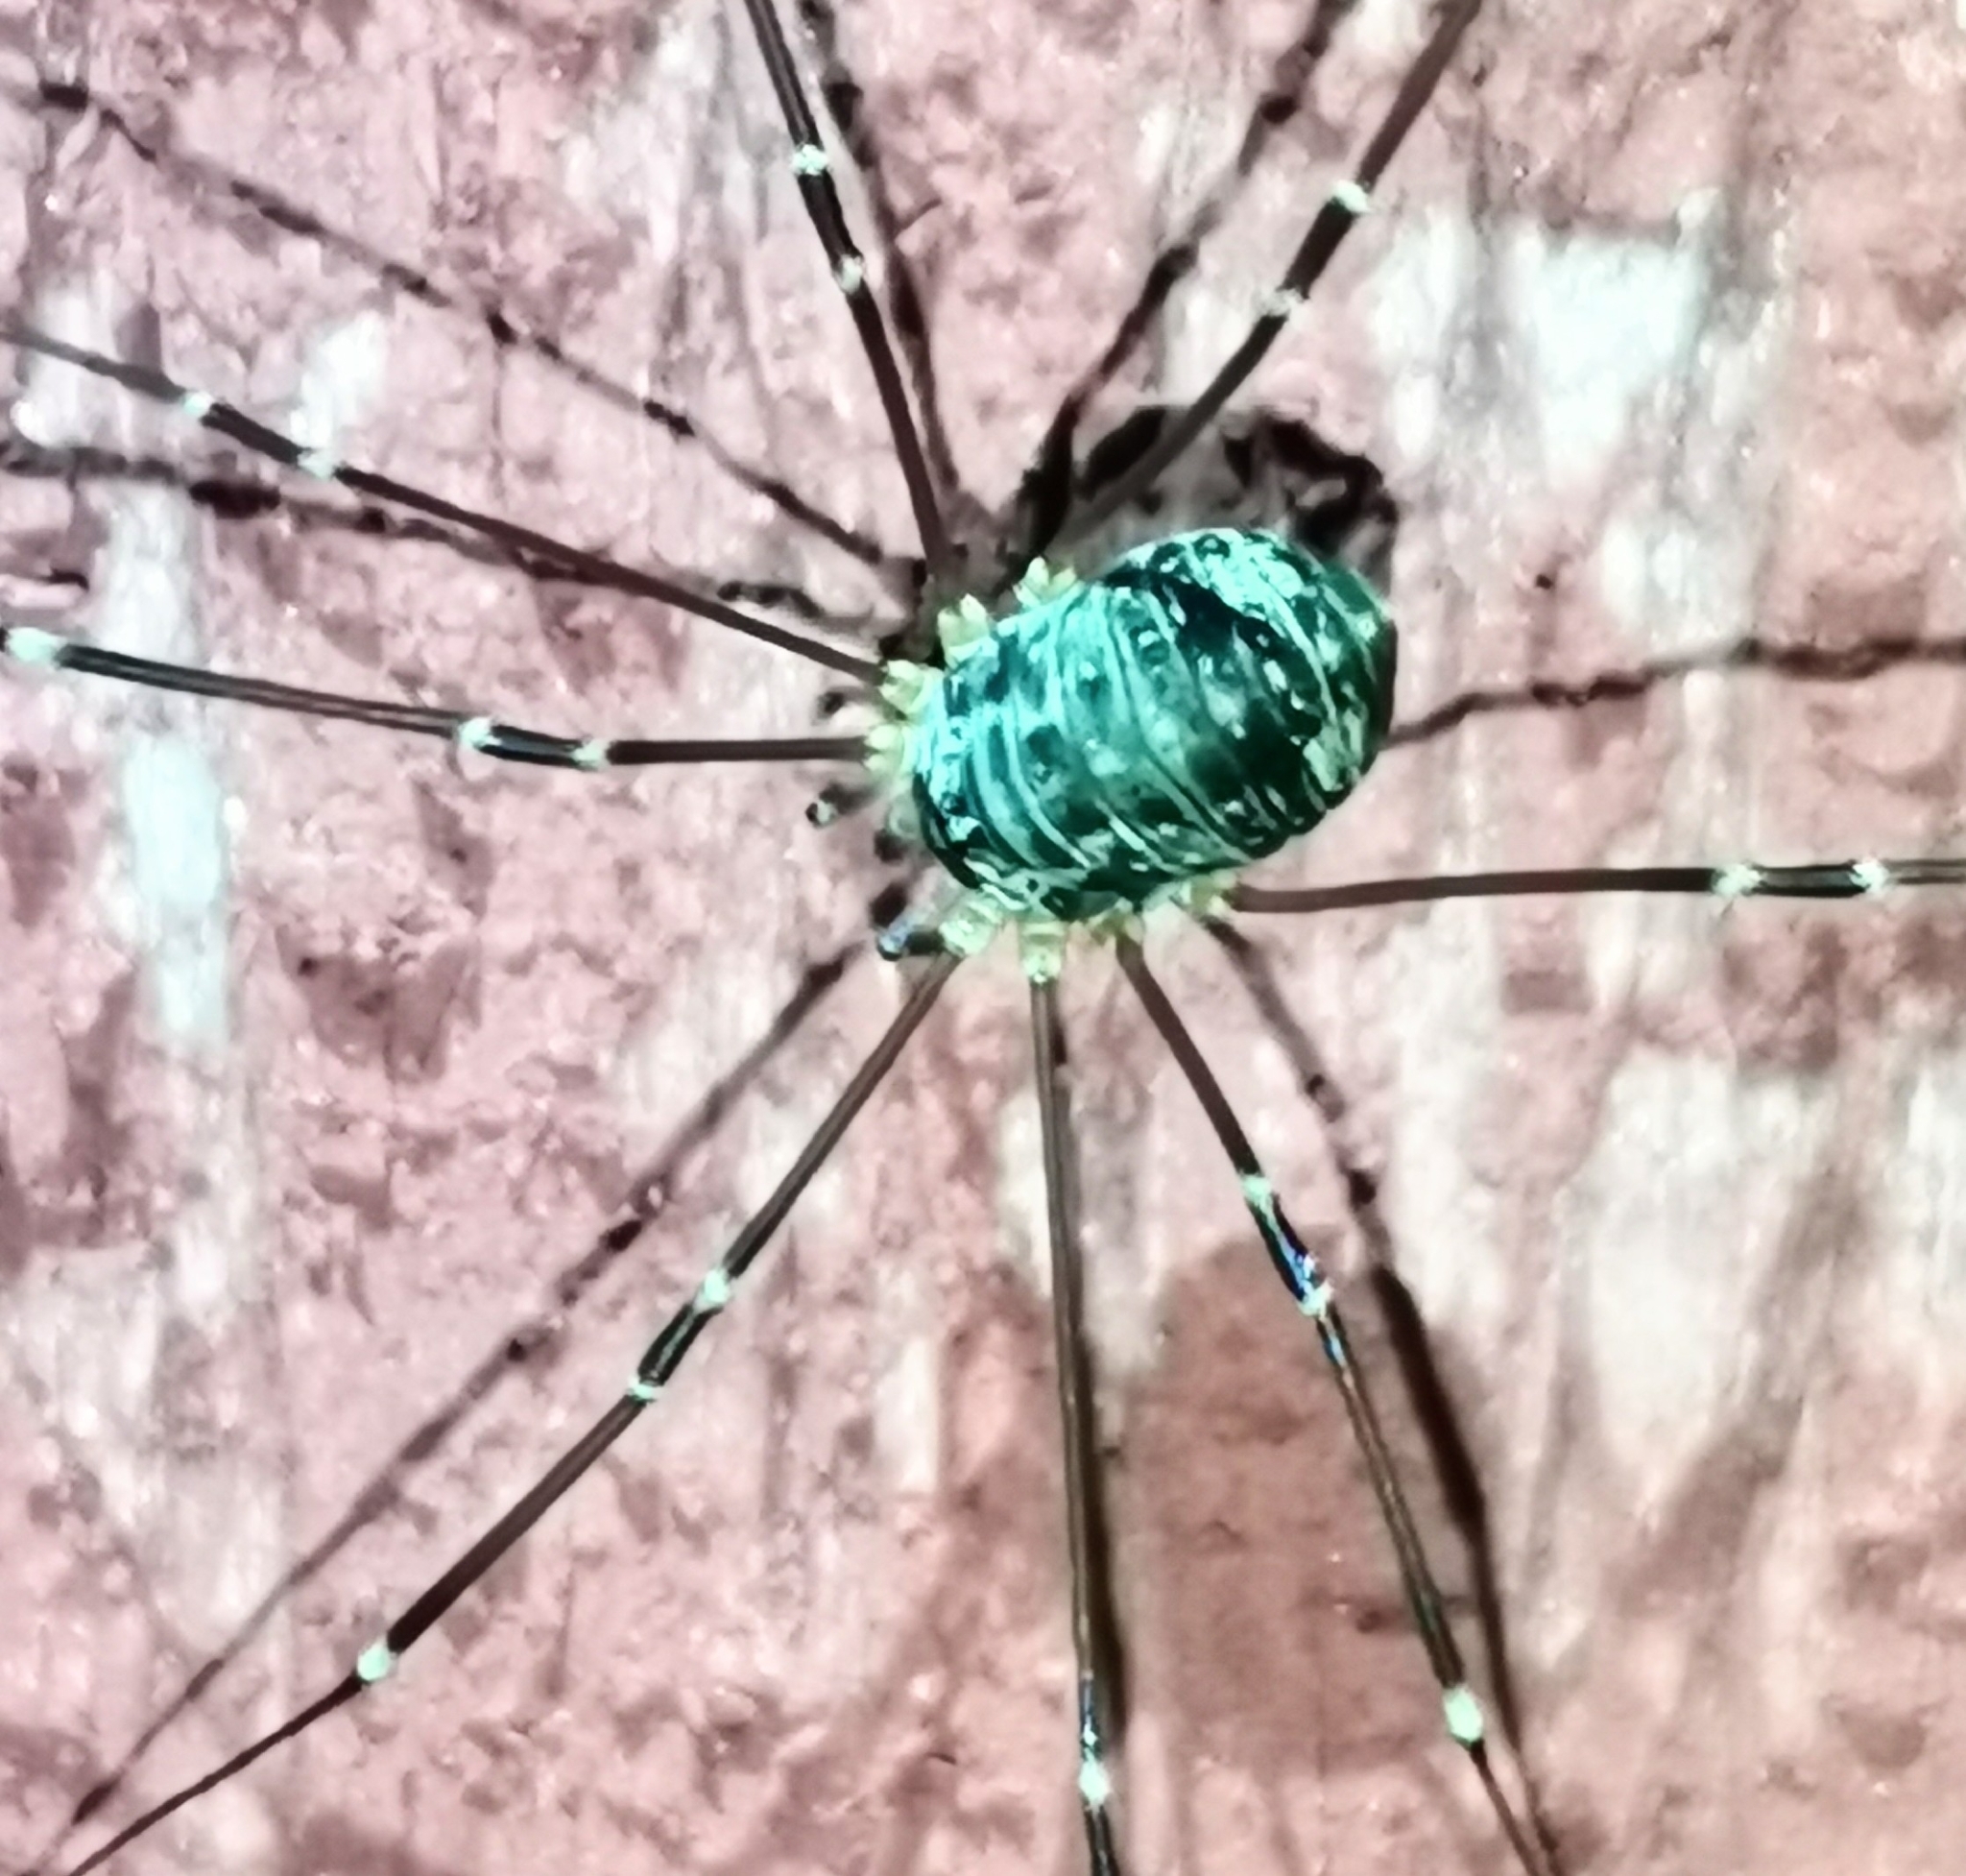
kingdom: Animalia
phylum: Arthropoda
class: Arachnida
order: Opiliones
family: Sclerosomatidae
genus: Leiobunum
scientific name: Leiobunum gracile
